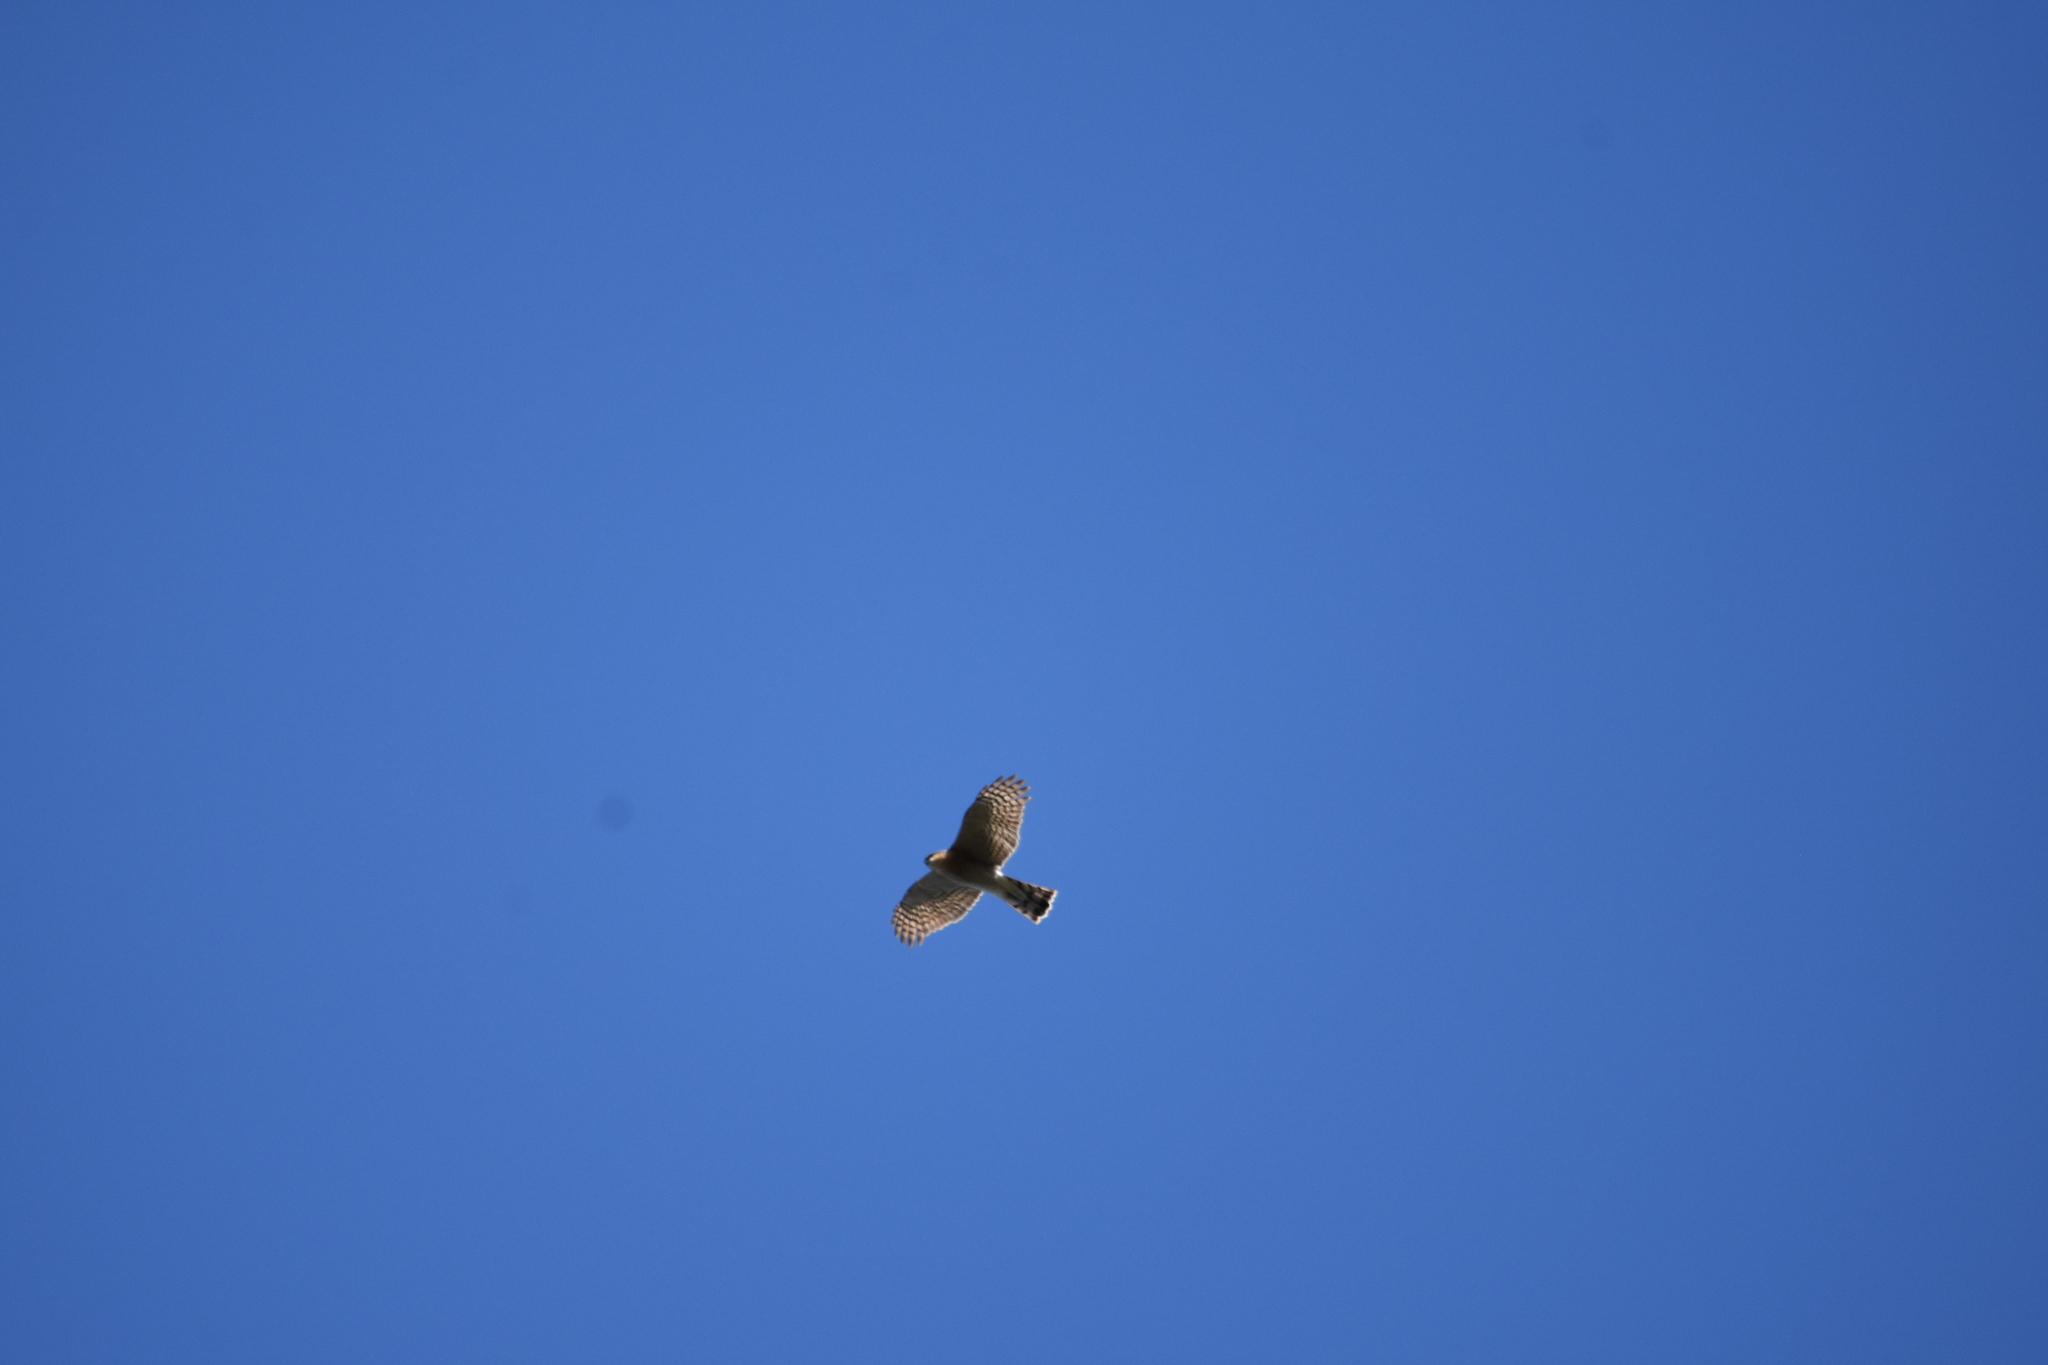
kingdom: Animalia
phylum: Chordata
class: Aves
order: Accipitriformes
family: Accipitridae
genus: Accipiter
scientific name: Accipiter nisus
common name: Eurasian sparrowhawk
